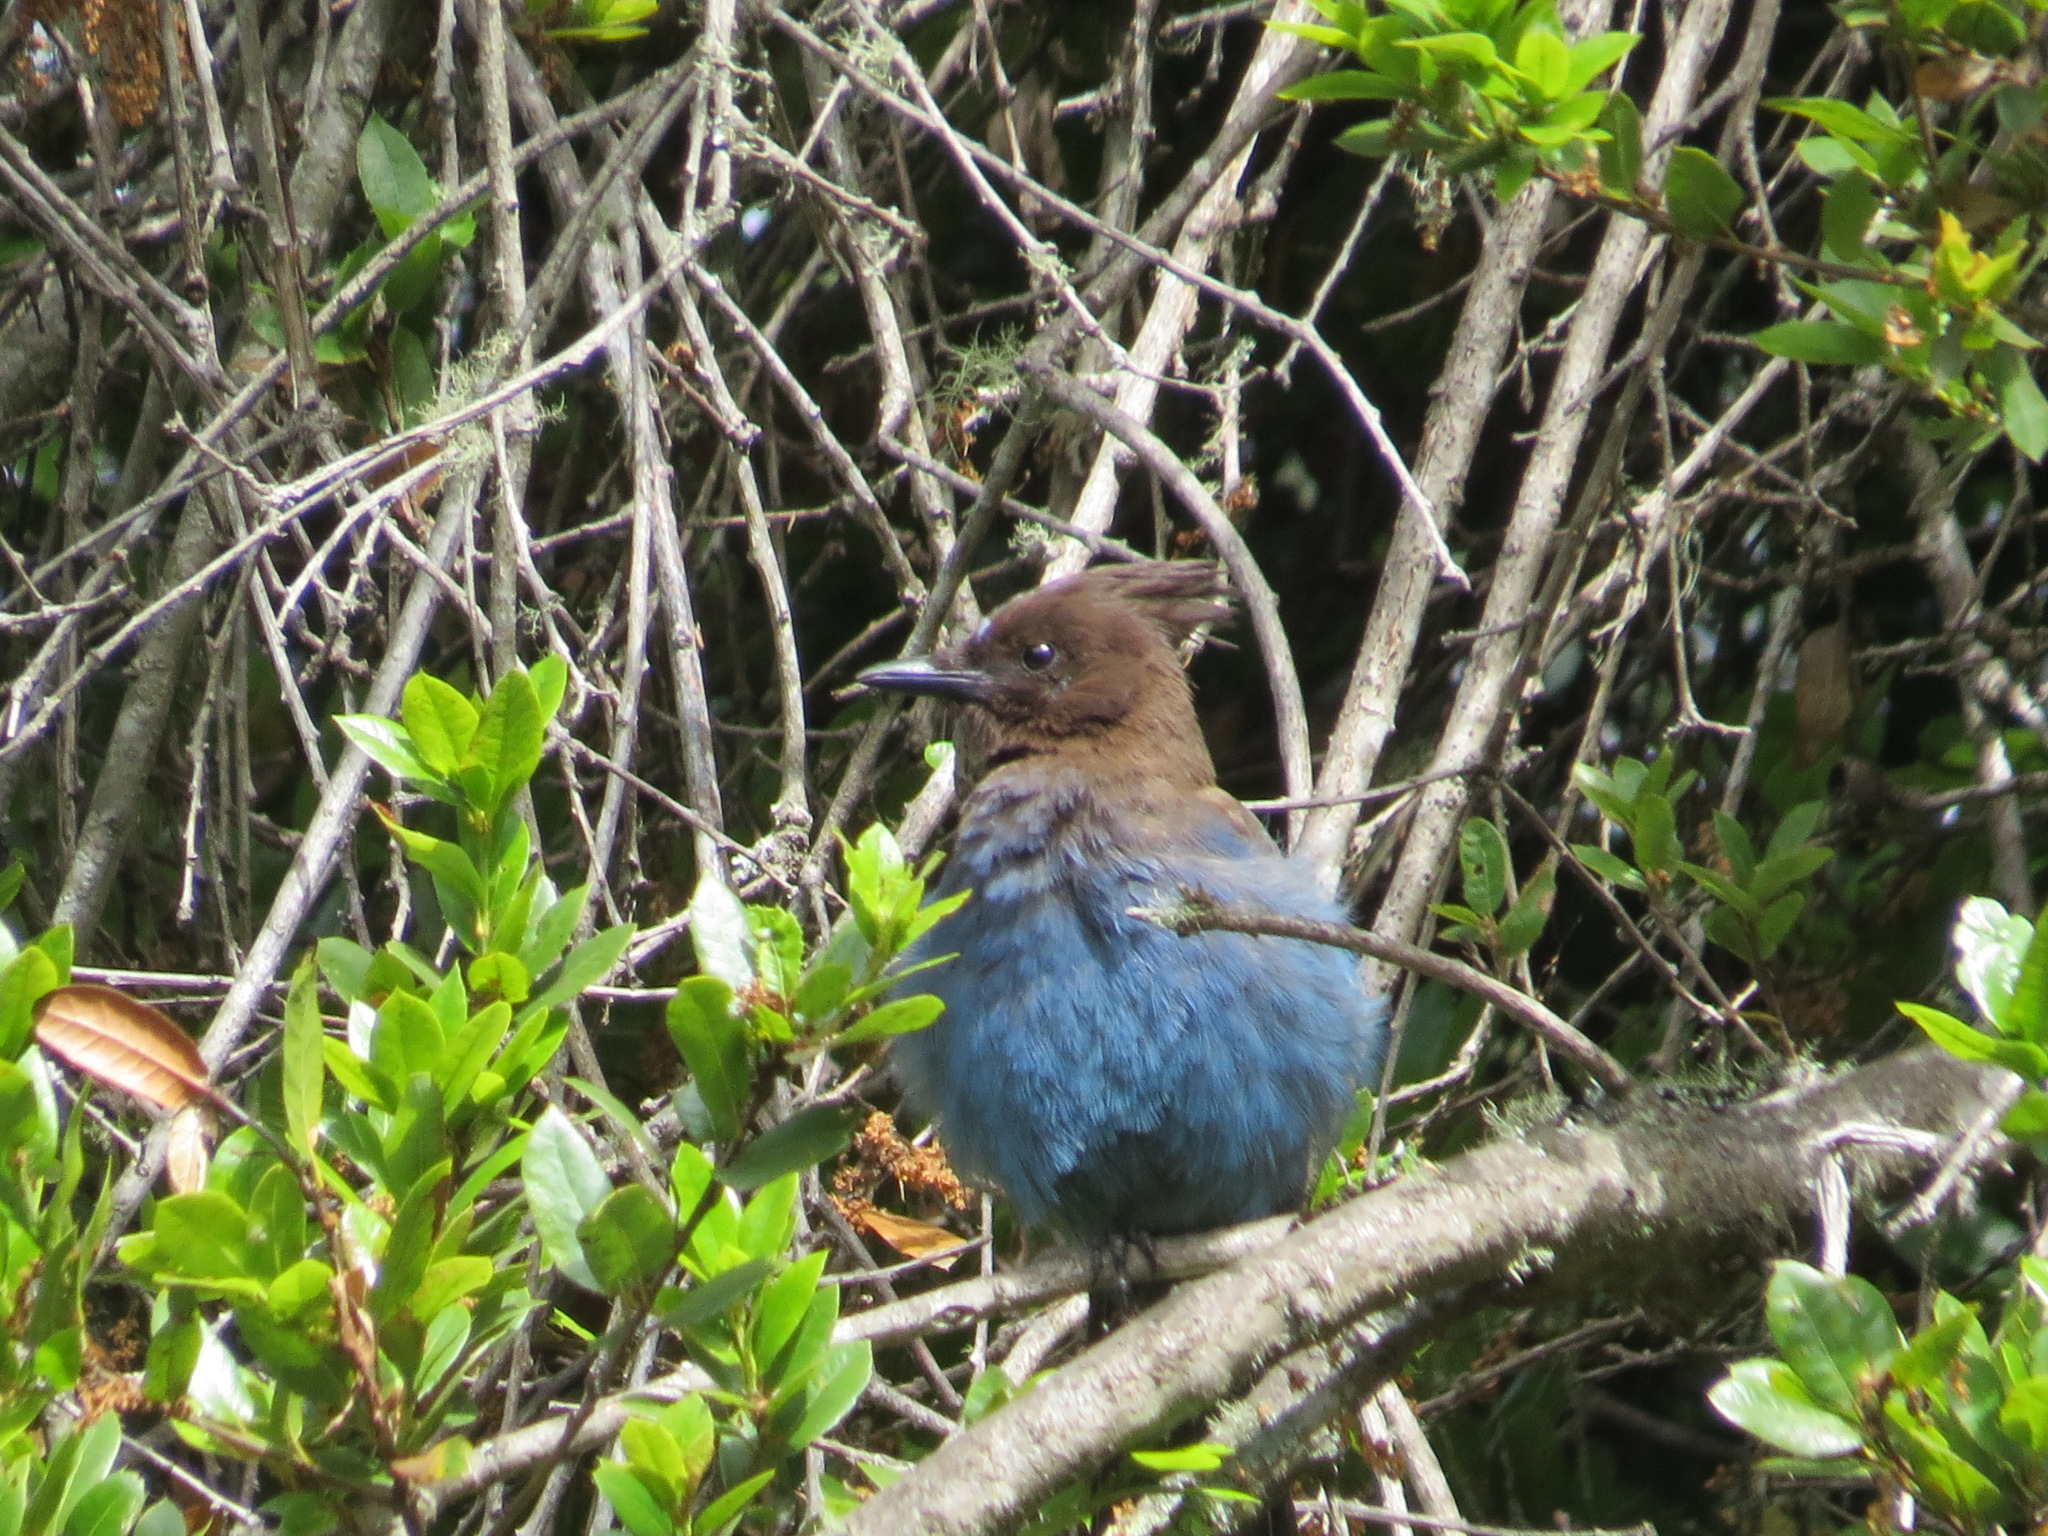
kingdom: Animalia
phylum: Chordata
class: Aves
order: Passeriformes
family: Corvidae
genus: Cyanocitta
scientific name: Cyanocitta stelleri
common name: Steller's jay
